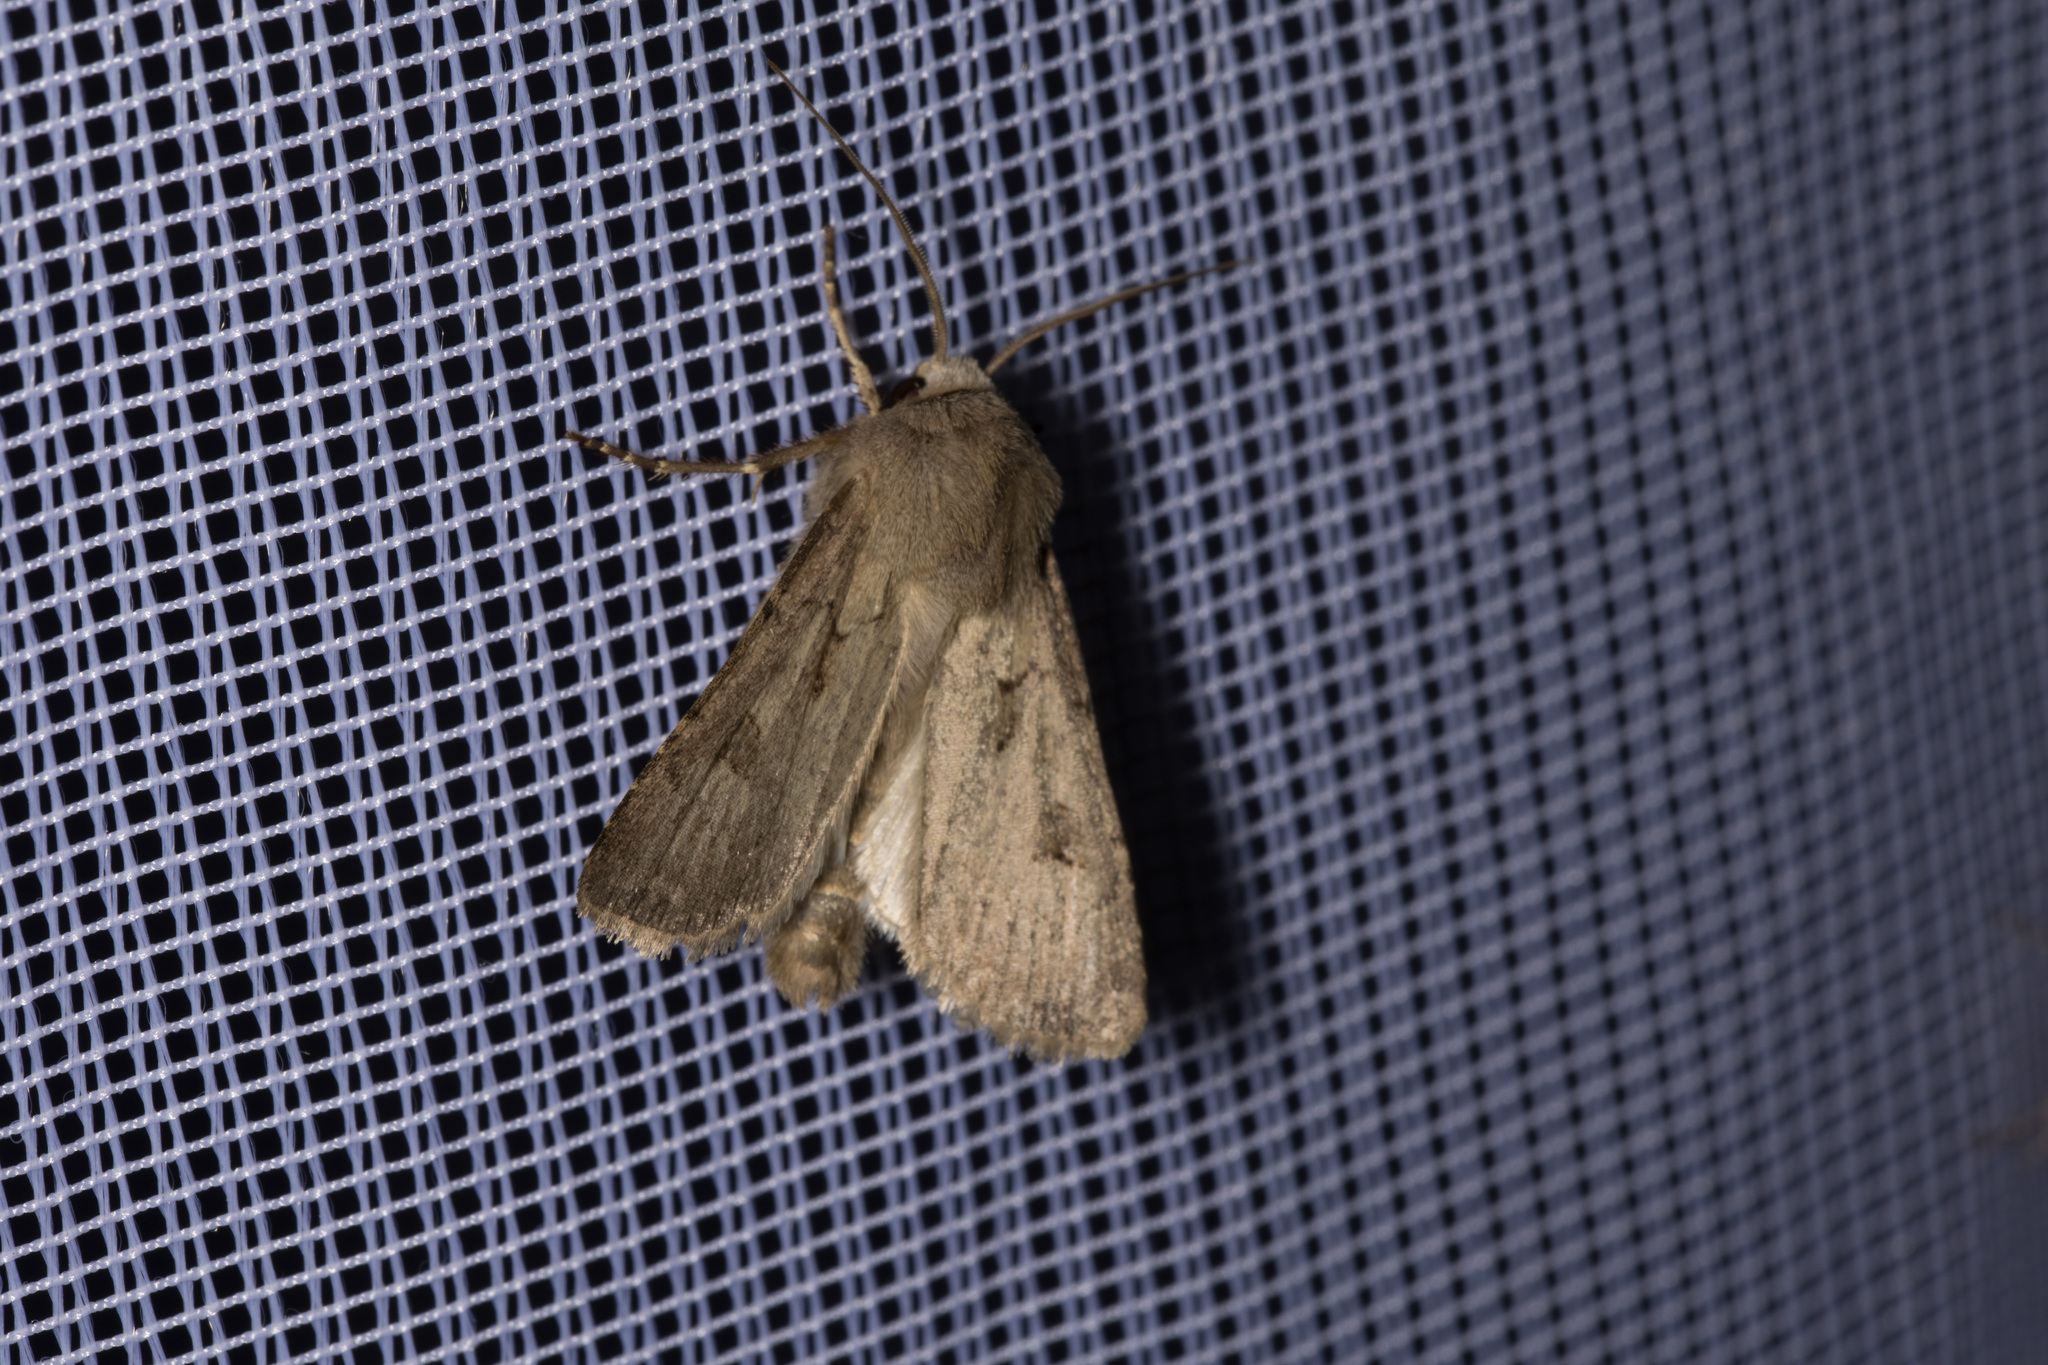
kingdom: Animalia
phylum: Arthropoda
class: Insecta
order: Lepidoptera
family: Noctuidae
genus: Agrotis
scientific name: Agrotis exclamationis
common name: Heart and dart
